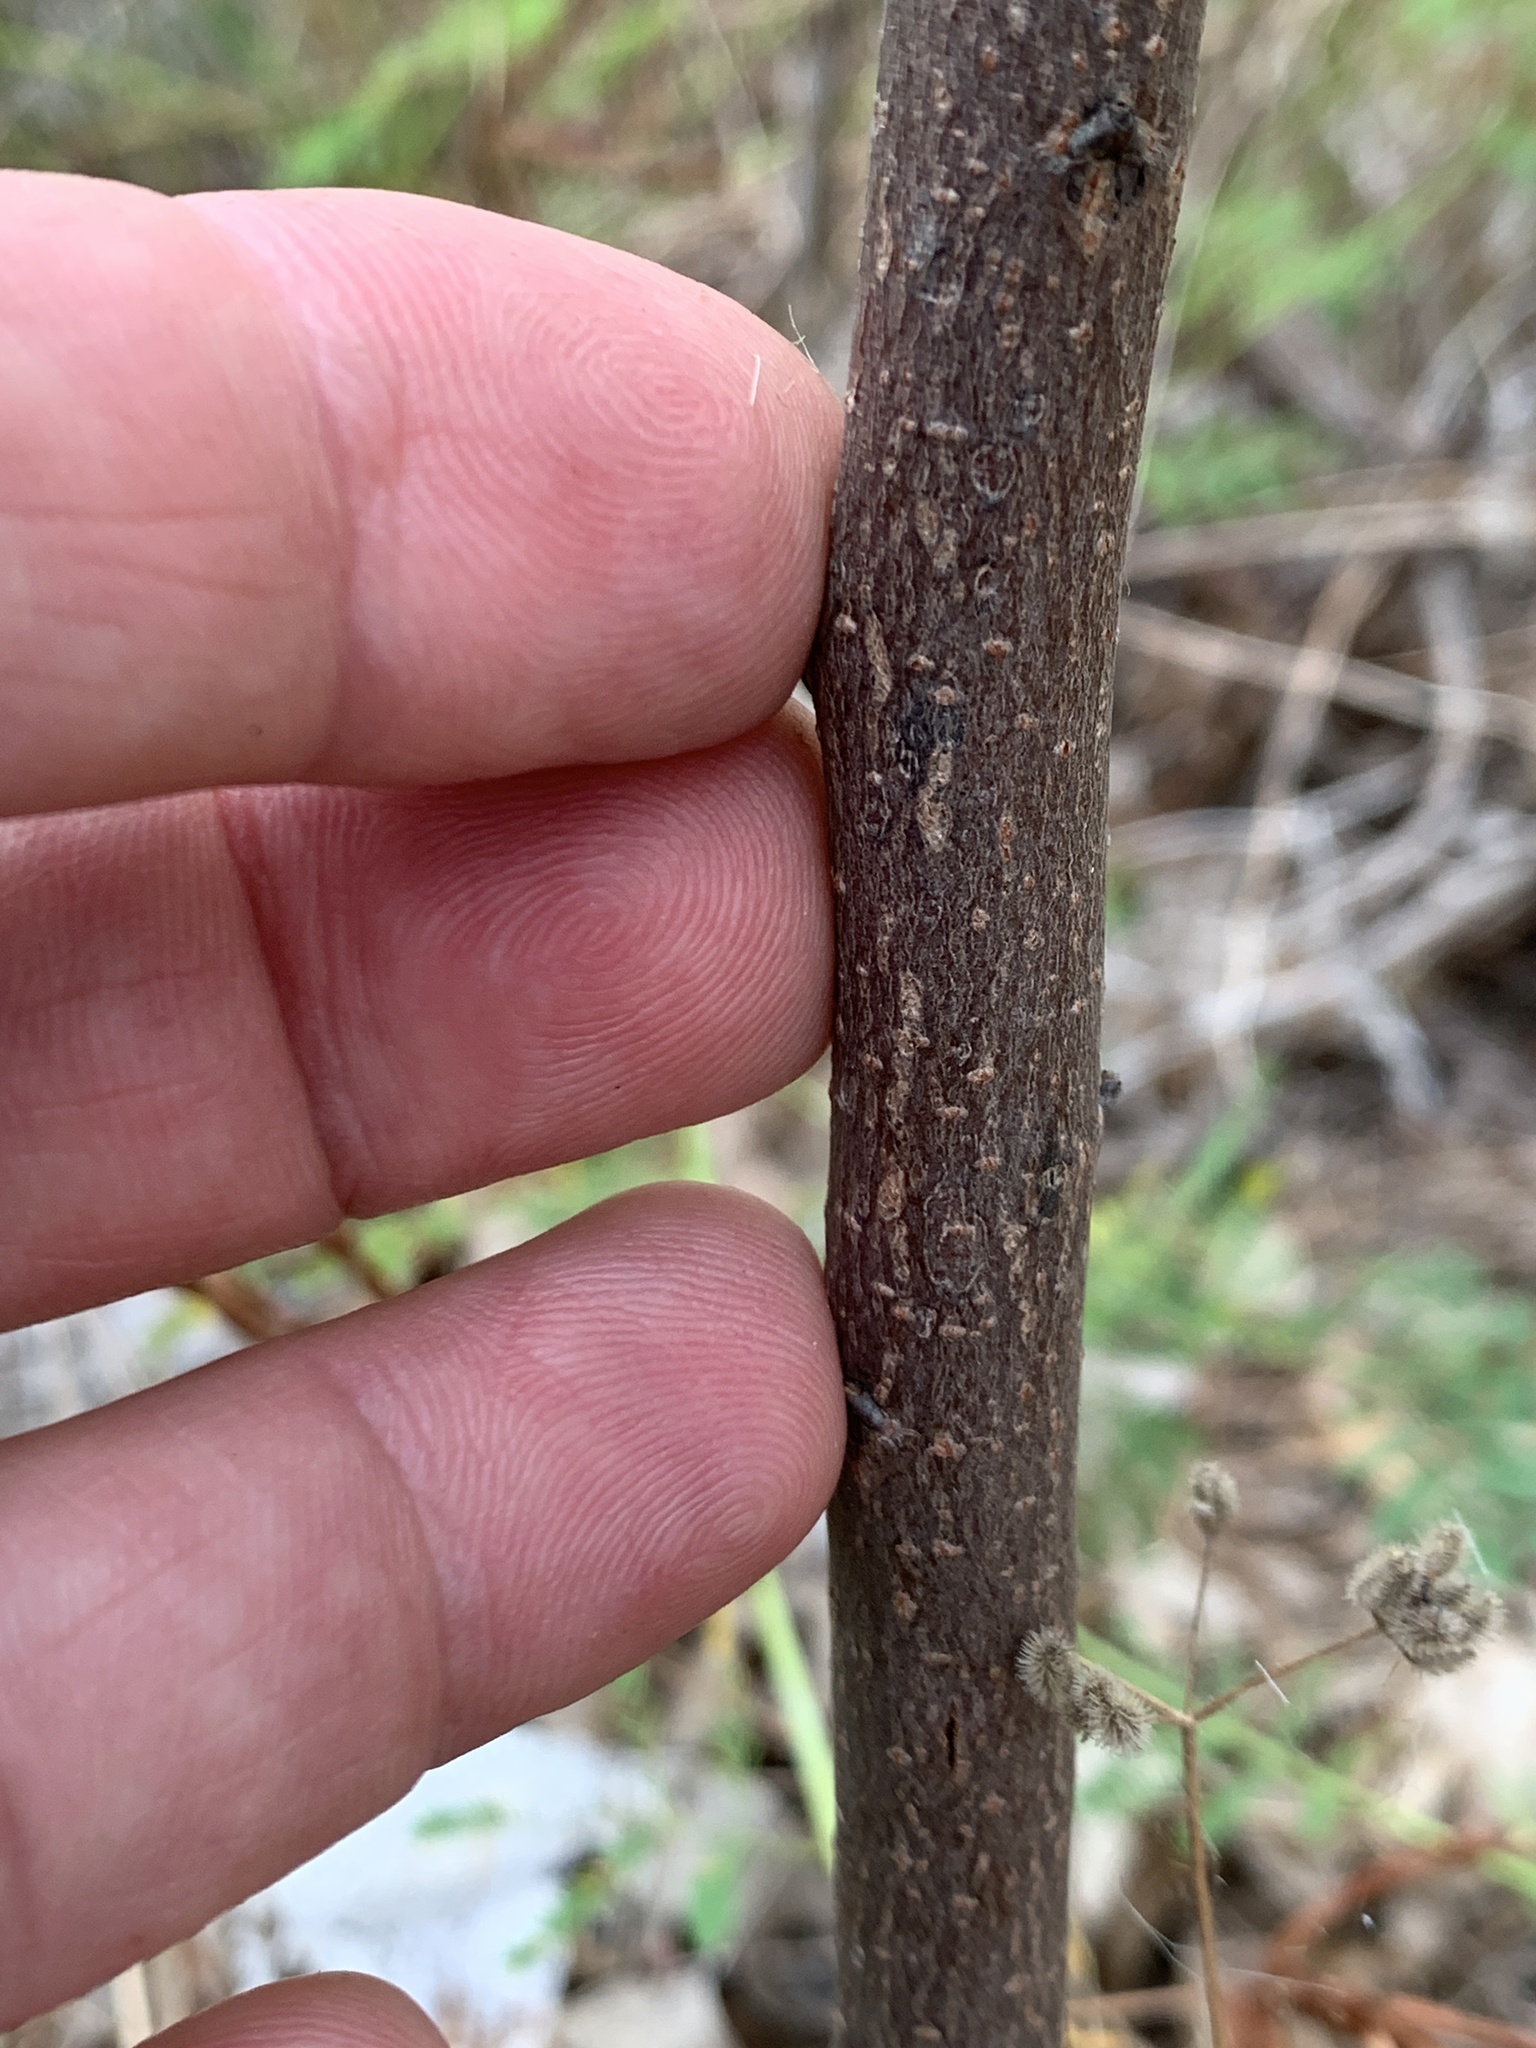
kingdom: Plantae
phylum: Tracheophyta
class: Magnoliopsida
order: Ericales
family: Ebenaceae
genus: Diospyros
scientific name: Diospyros virginiana
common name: Persimmon
